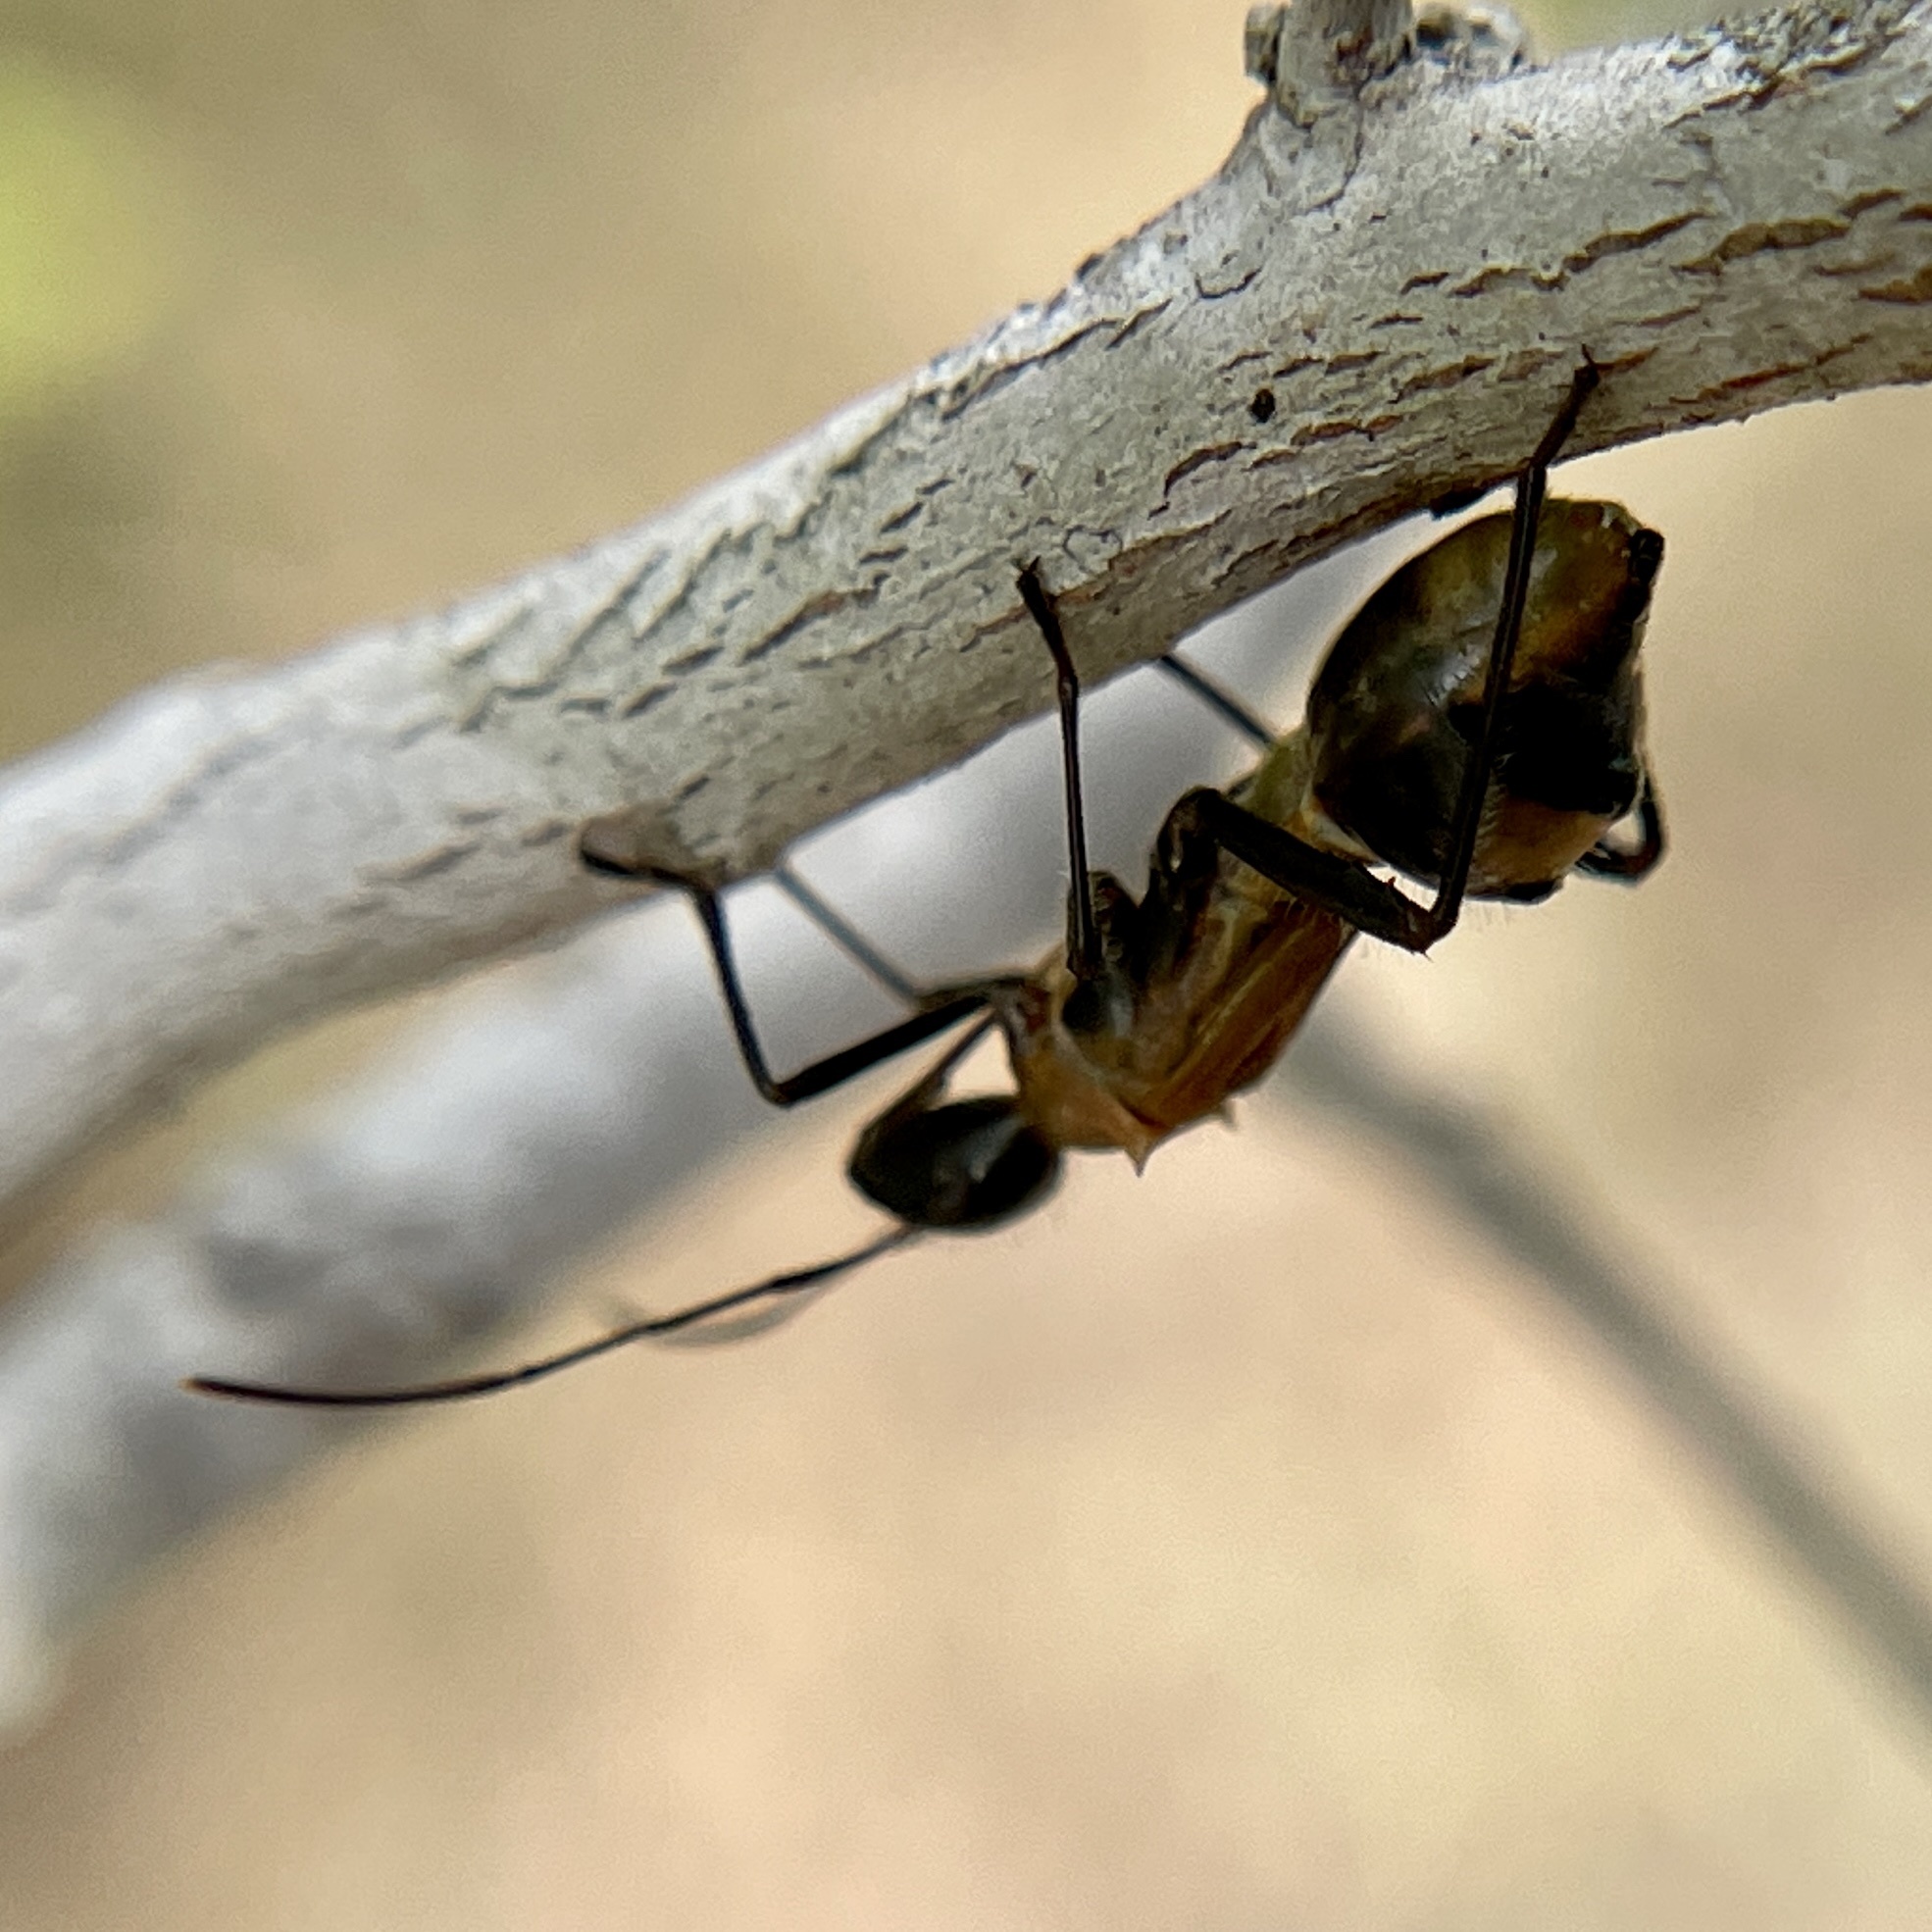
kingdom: Animalia
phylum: Arthropoda
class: Insecta
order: Hemiptera
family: Alydidae
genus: Hyalymenus
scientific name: Hyalymenus tarsatus
